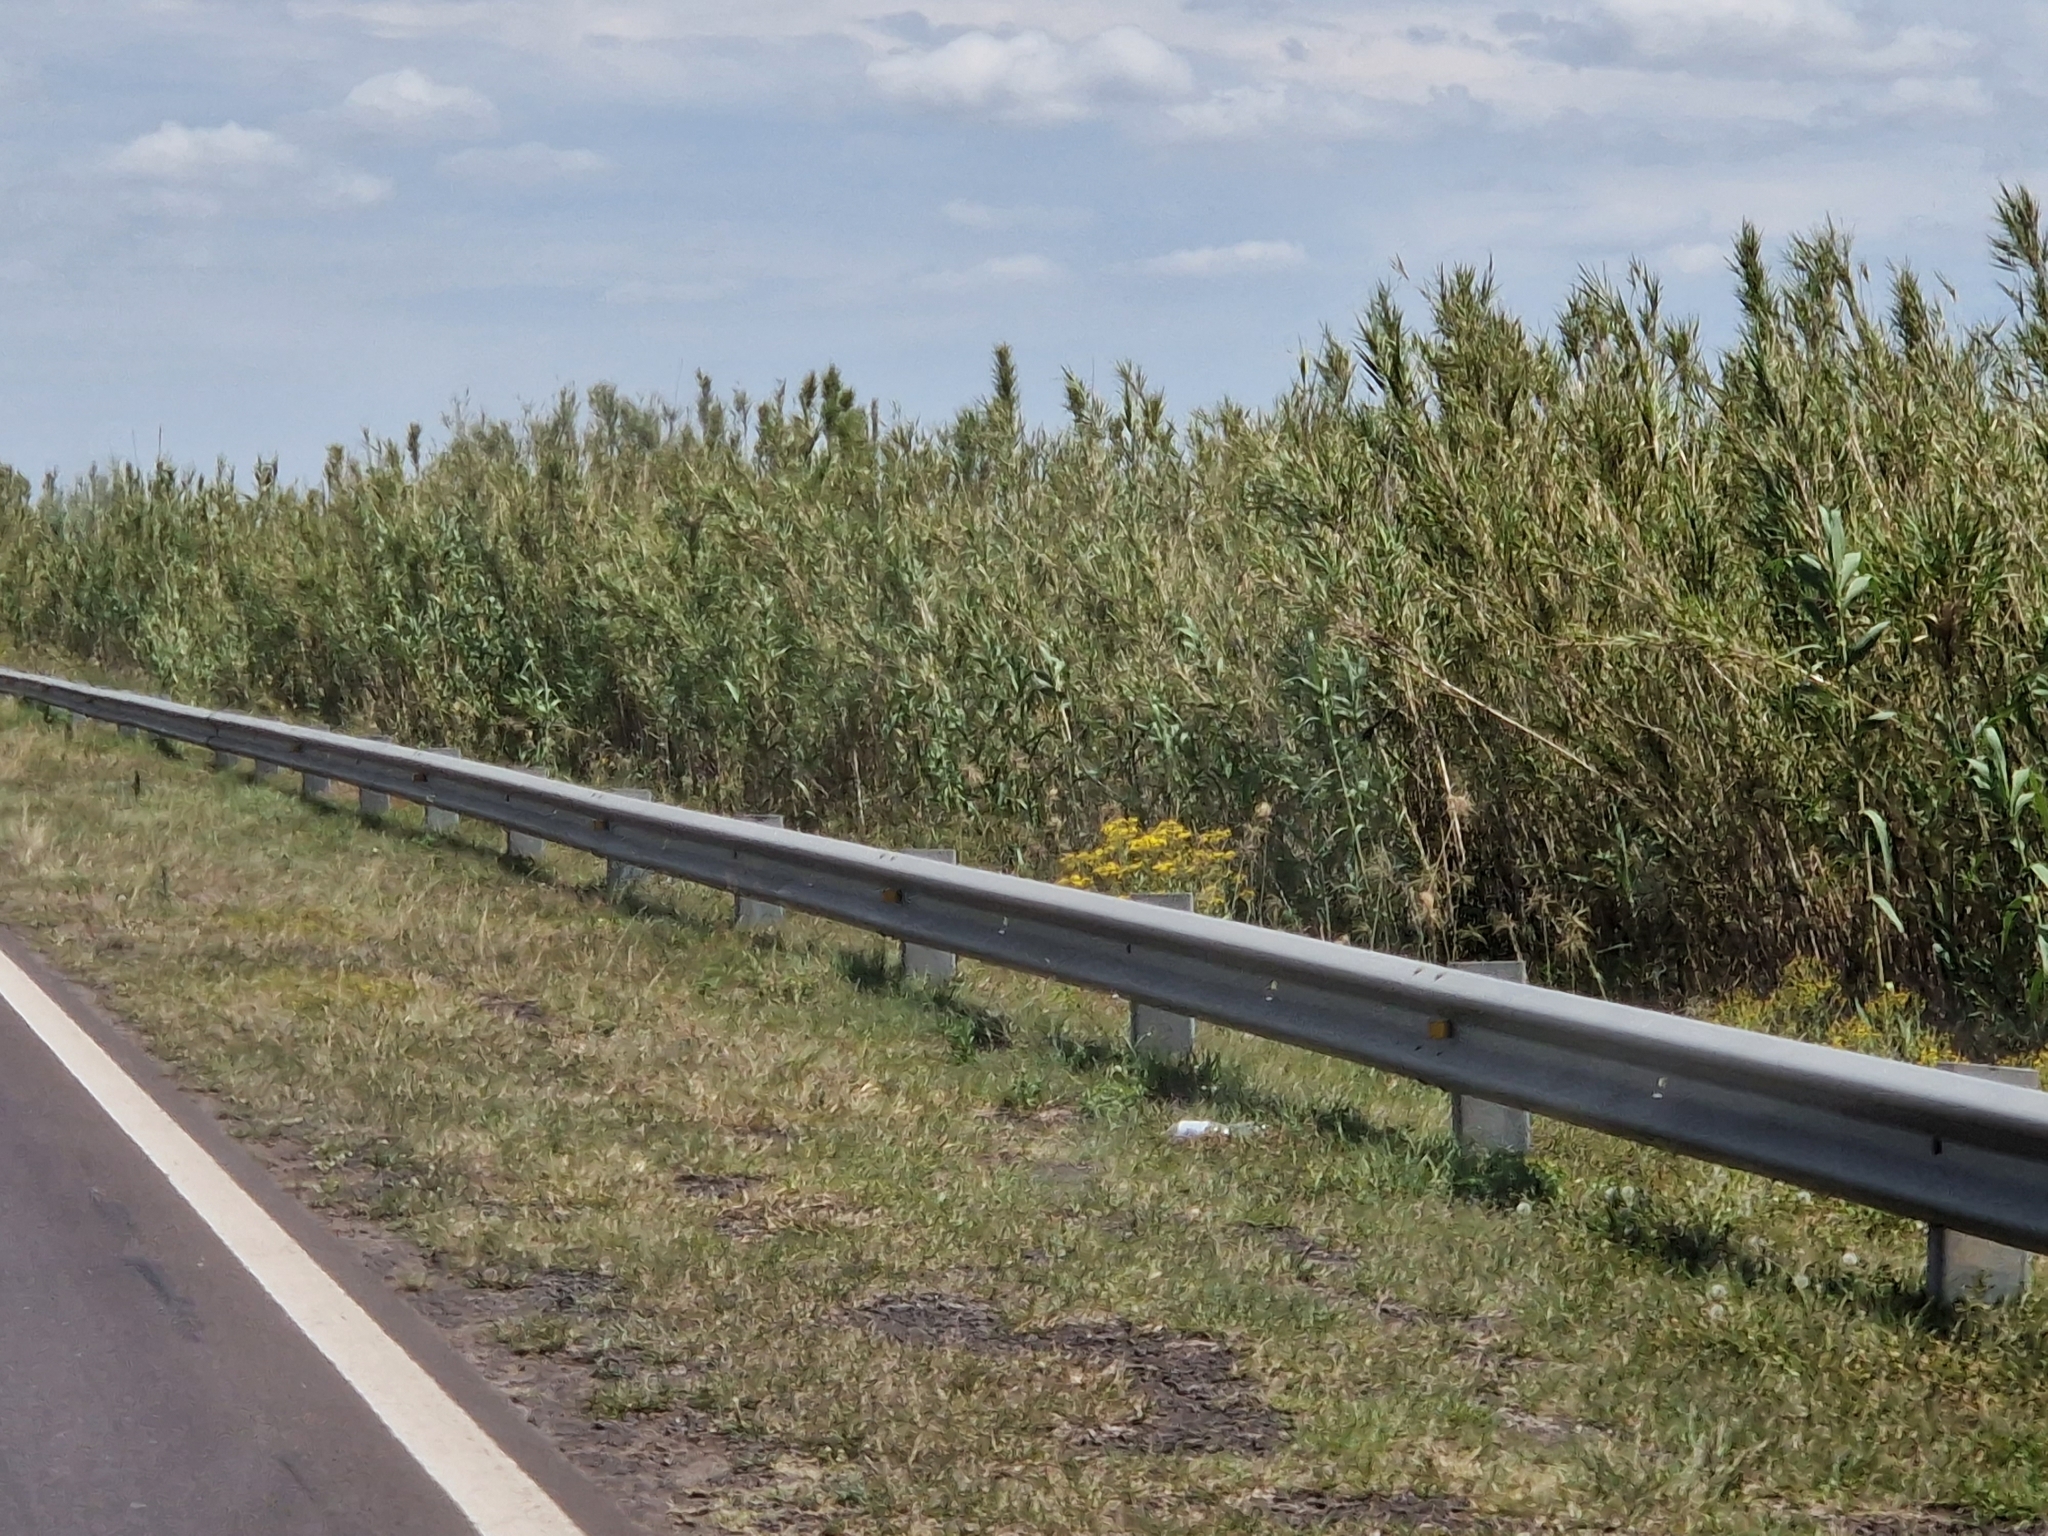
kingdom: Plantae
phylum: Tracheophyta
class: Liliopsida
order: Poales
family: Poaceae
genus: Arundo
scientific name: Arundo donax
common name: Giant reed
